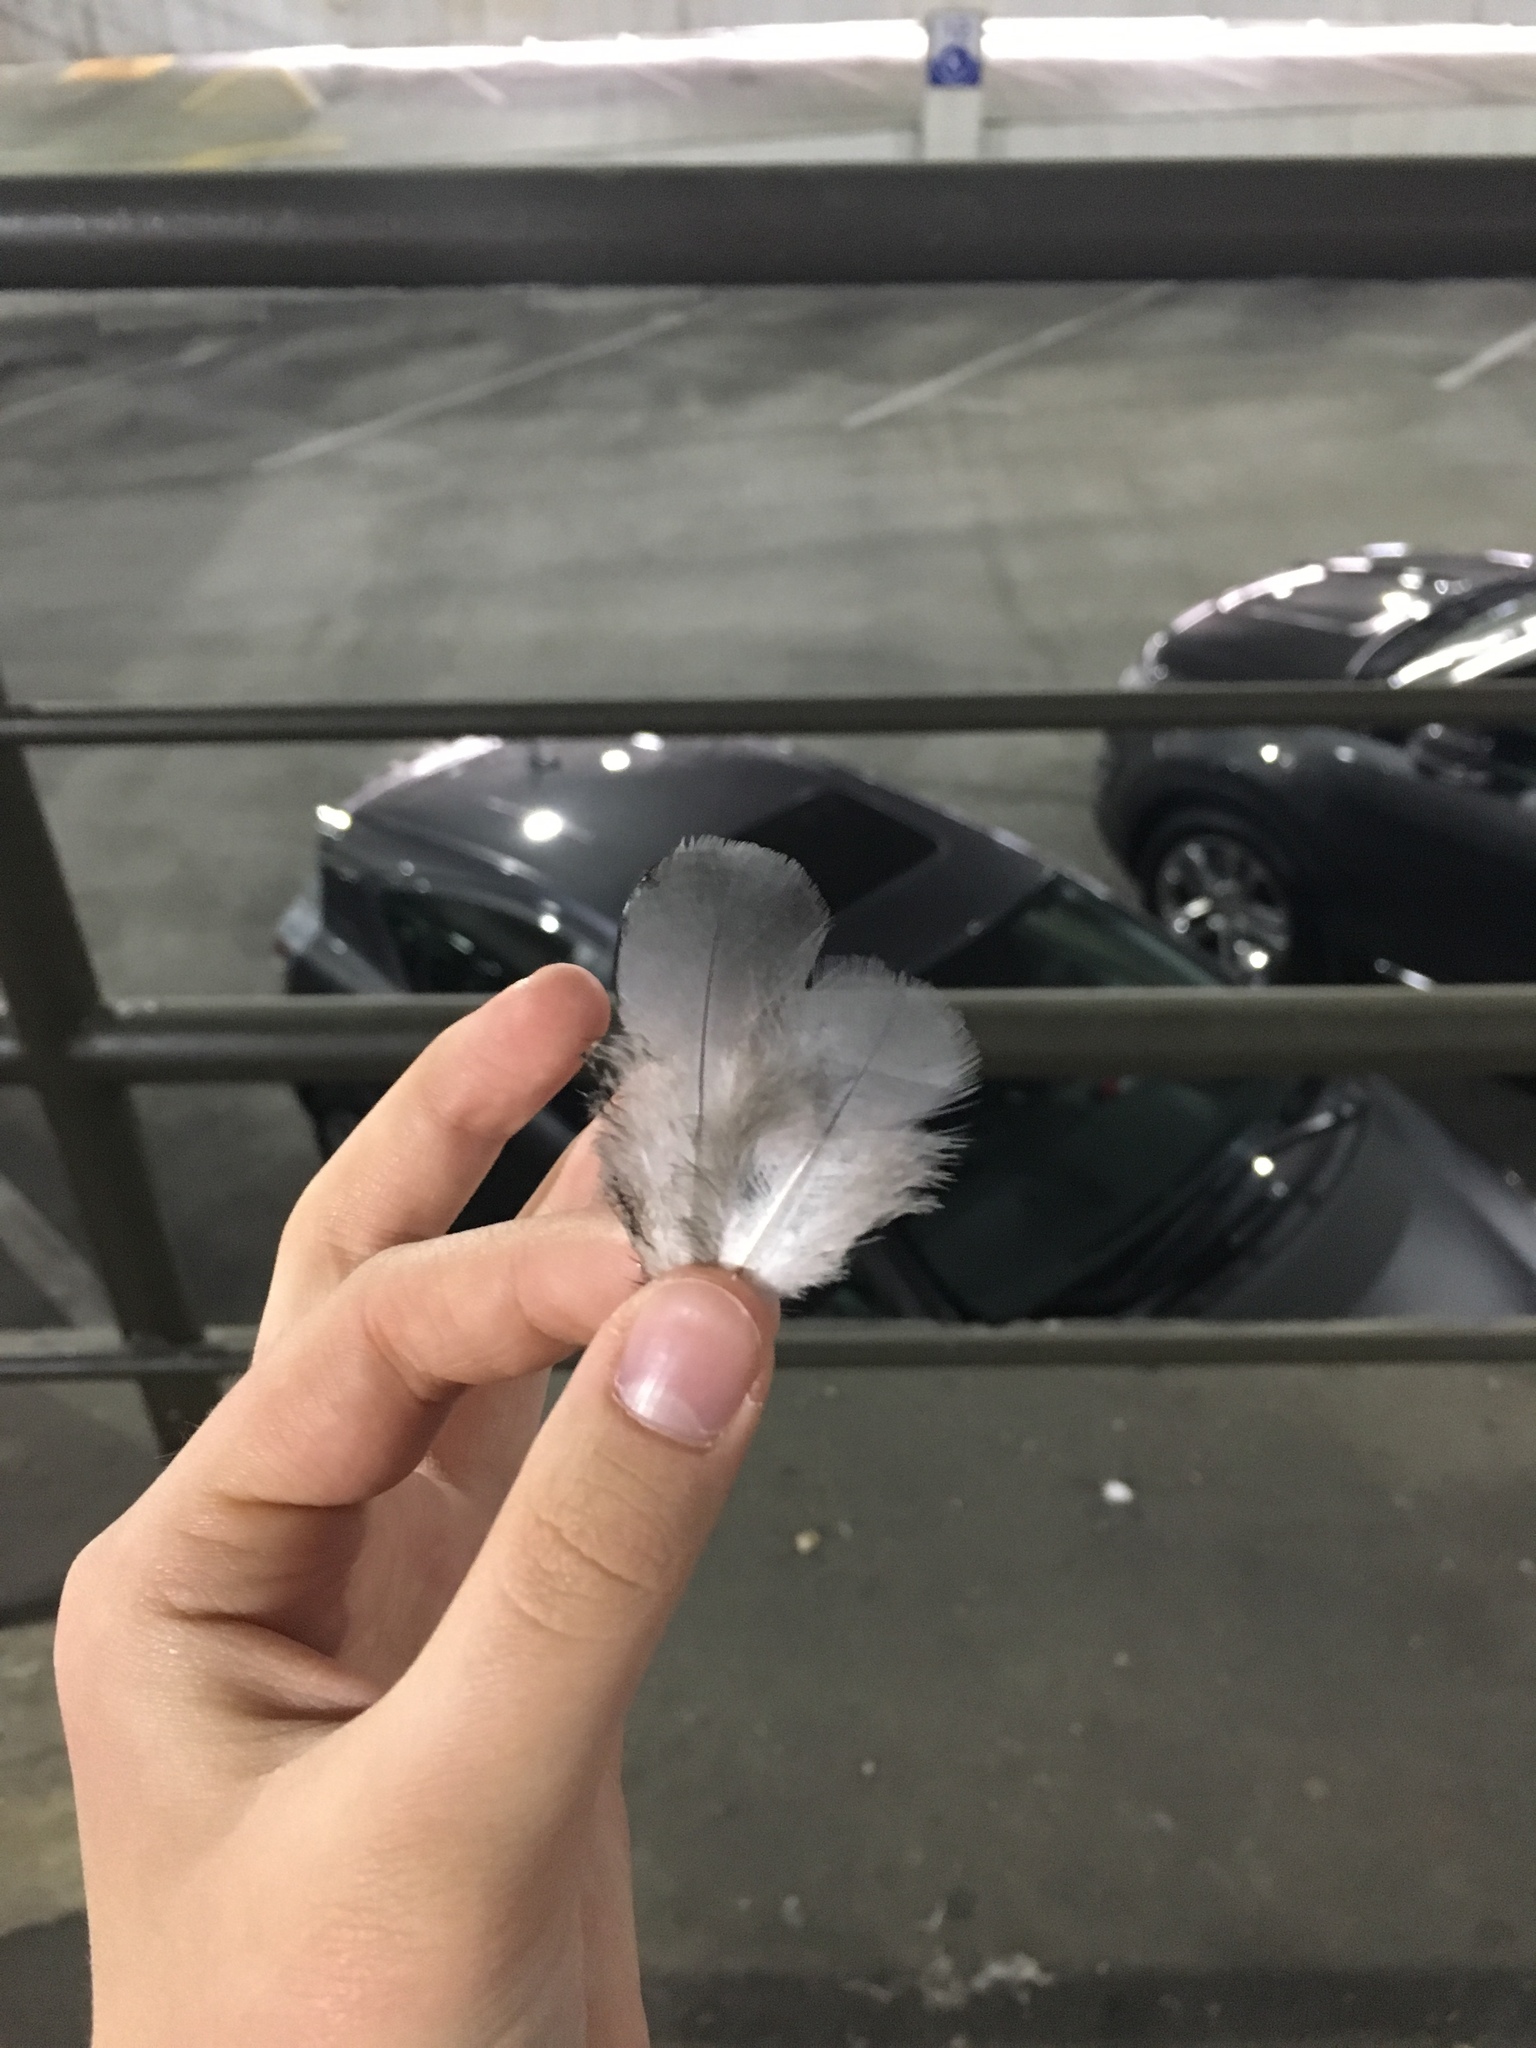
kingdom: Animalia
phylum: Chordata
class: Aves
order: Columbiformes
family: Columbidae
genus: Columba
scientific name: Columba livia
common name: Rock pigeon
